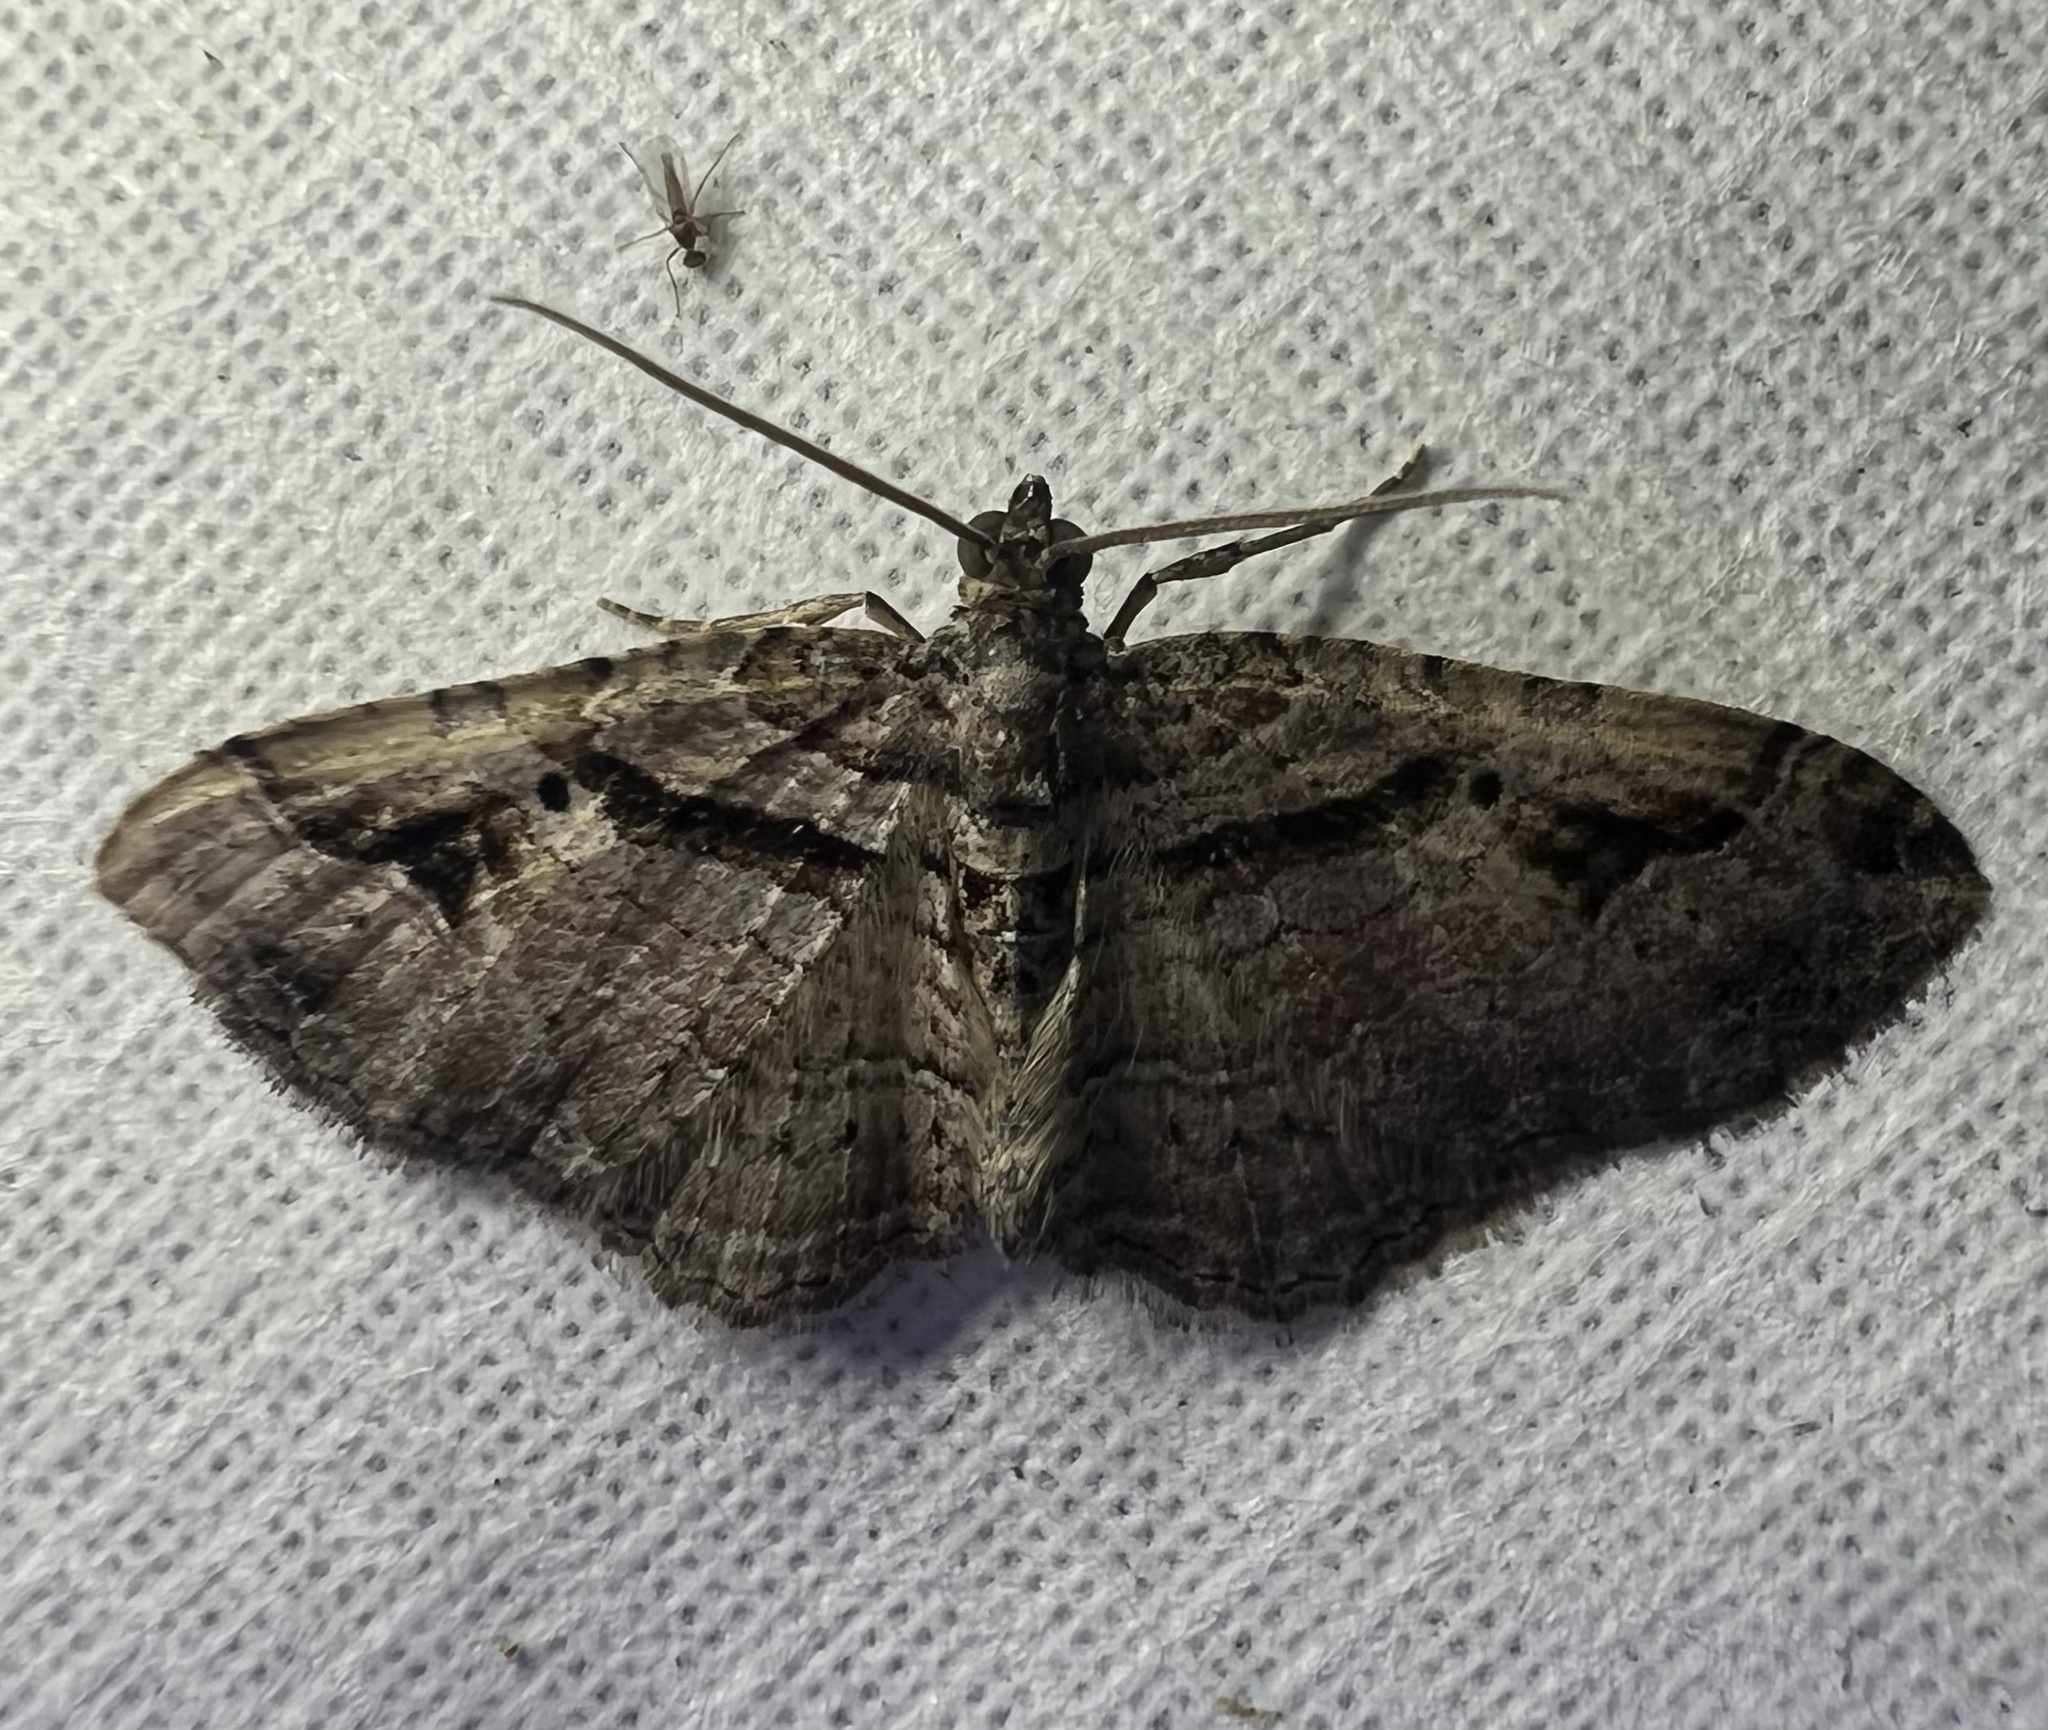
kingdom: Animalia
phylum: Arthropoda
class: Insecta
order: Lepidoptera
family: Geometridae
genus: Costaconvexa
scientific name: Costaconvexa centrostrigaria
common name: Bent-line carpet
